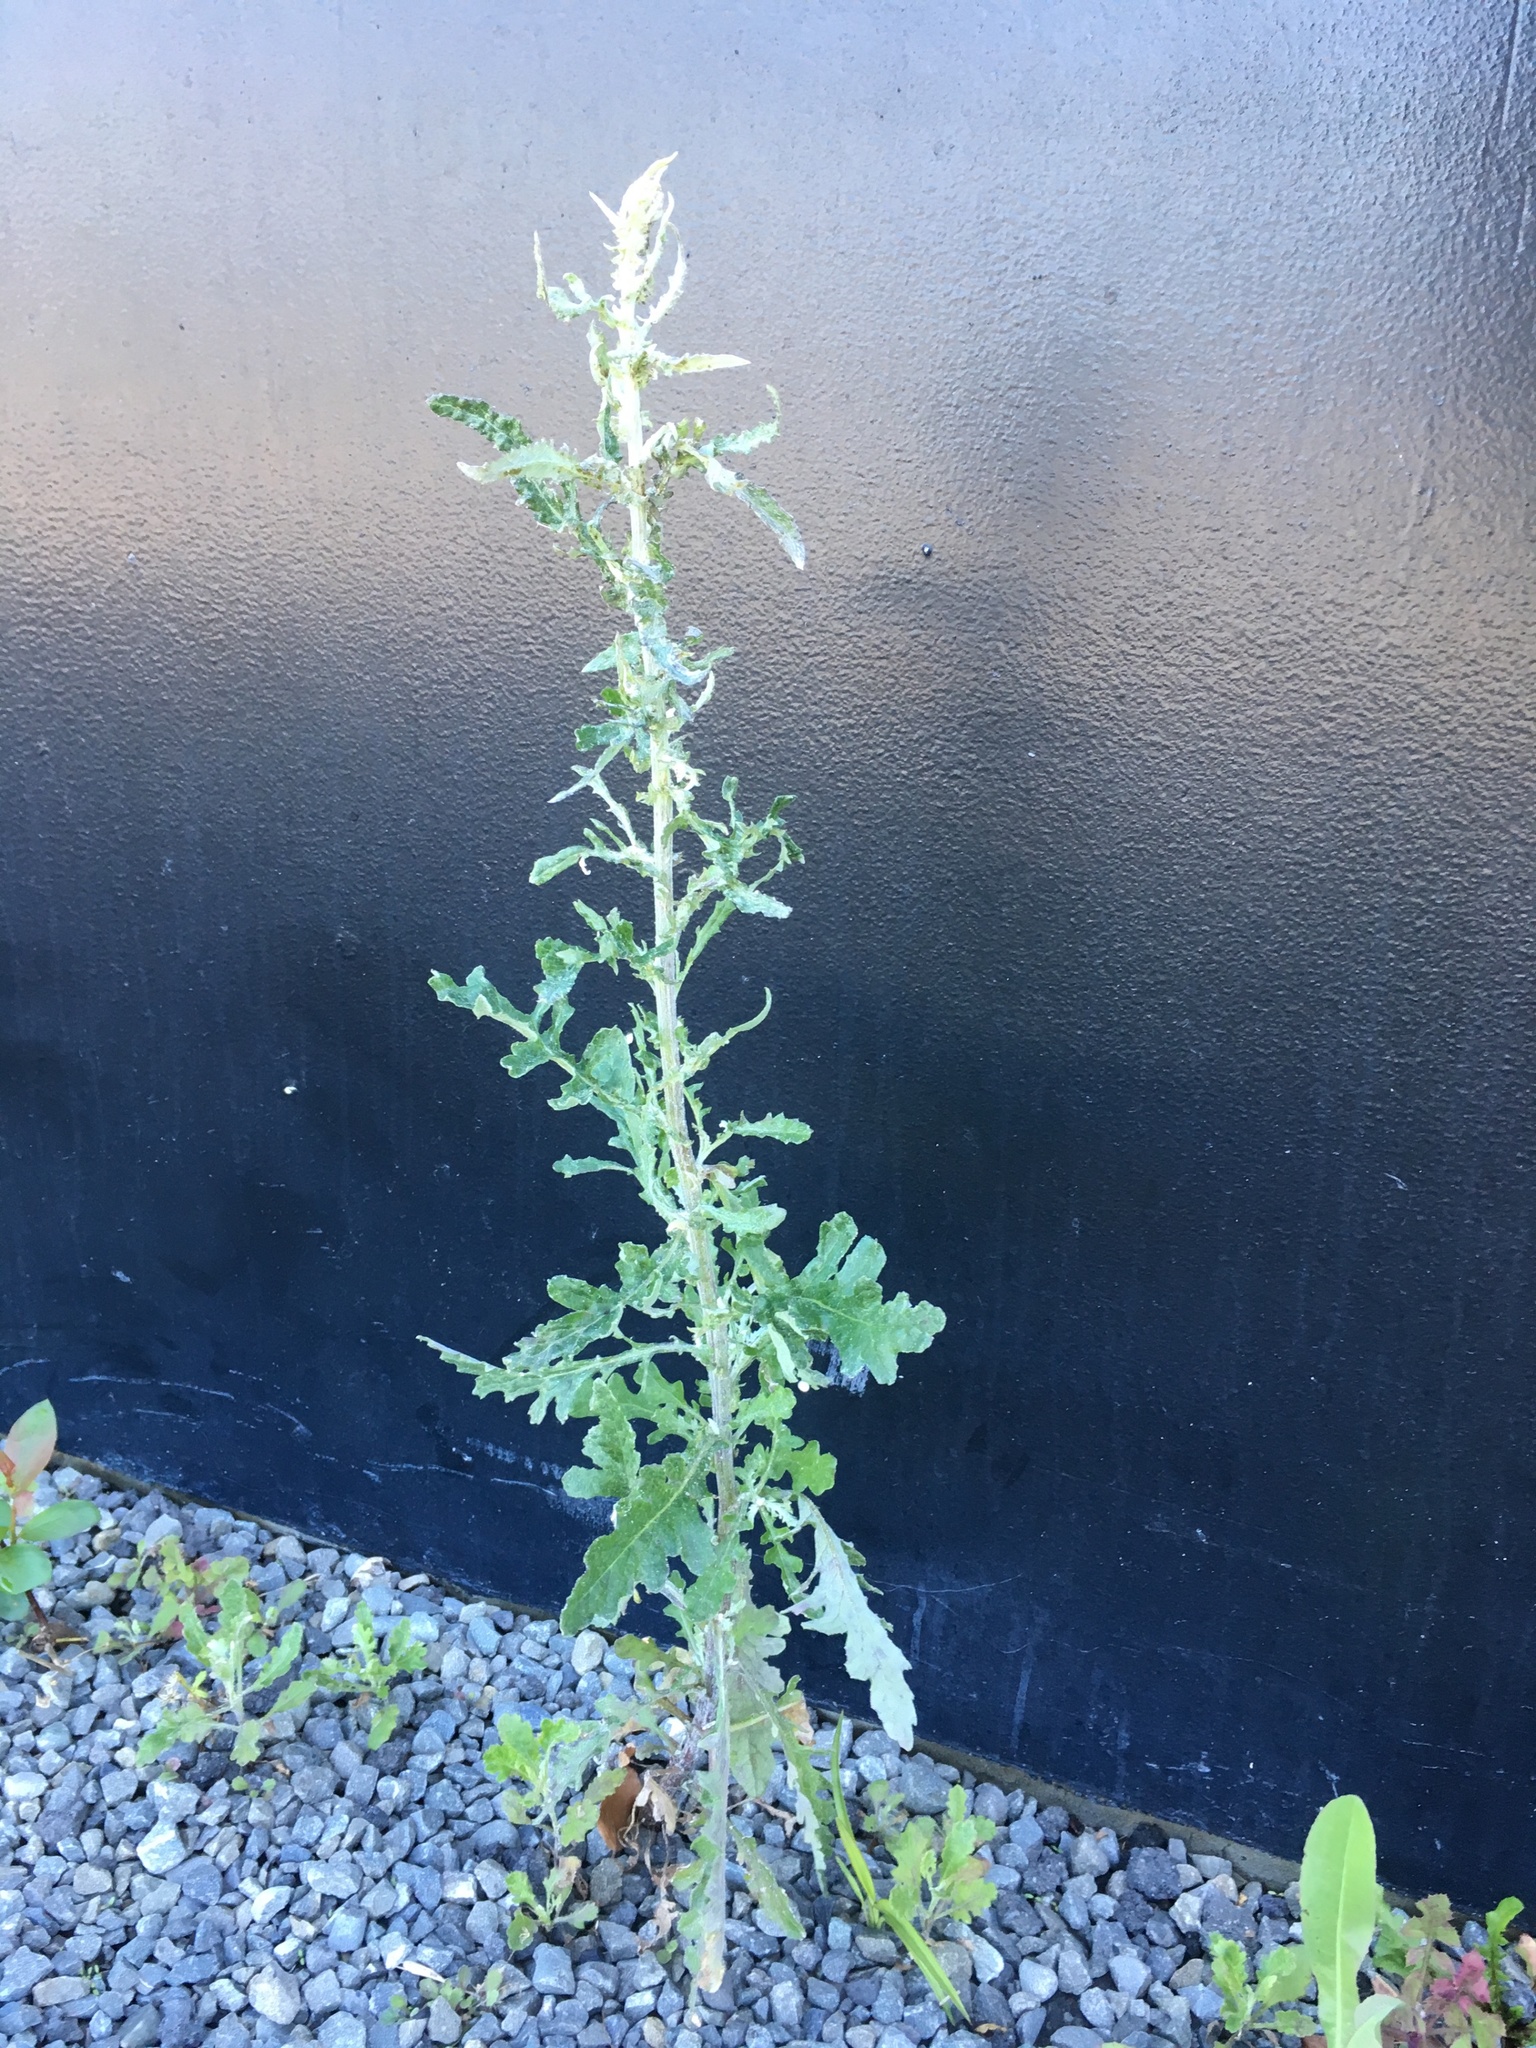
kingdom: Plantae
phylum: Tracheophyta
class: Magnoliopsida
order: Asterales
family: Asteraceae
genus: Senecio
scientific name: Senecio glomeratus
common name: Cutleaf burnweed
